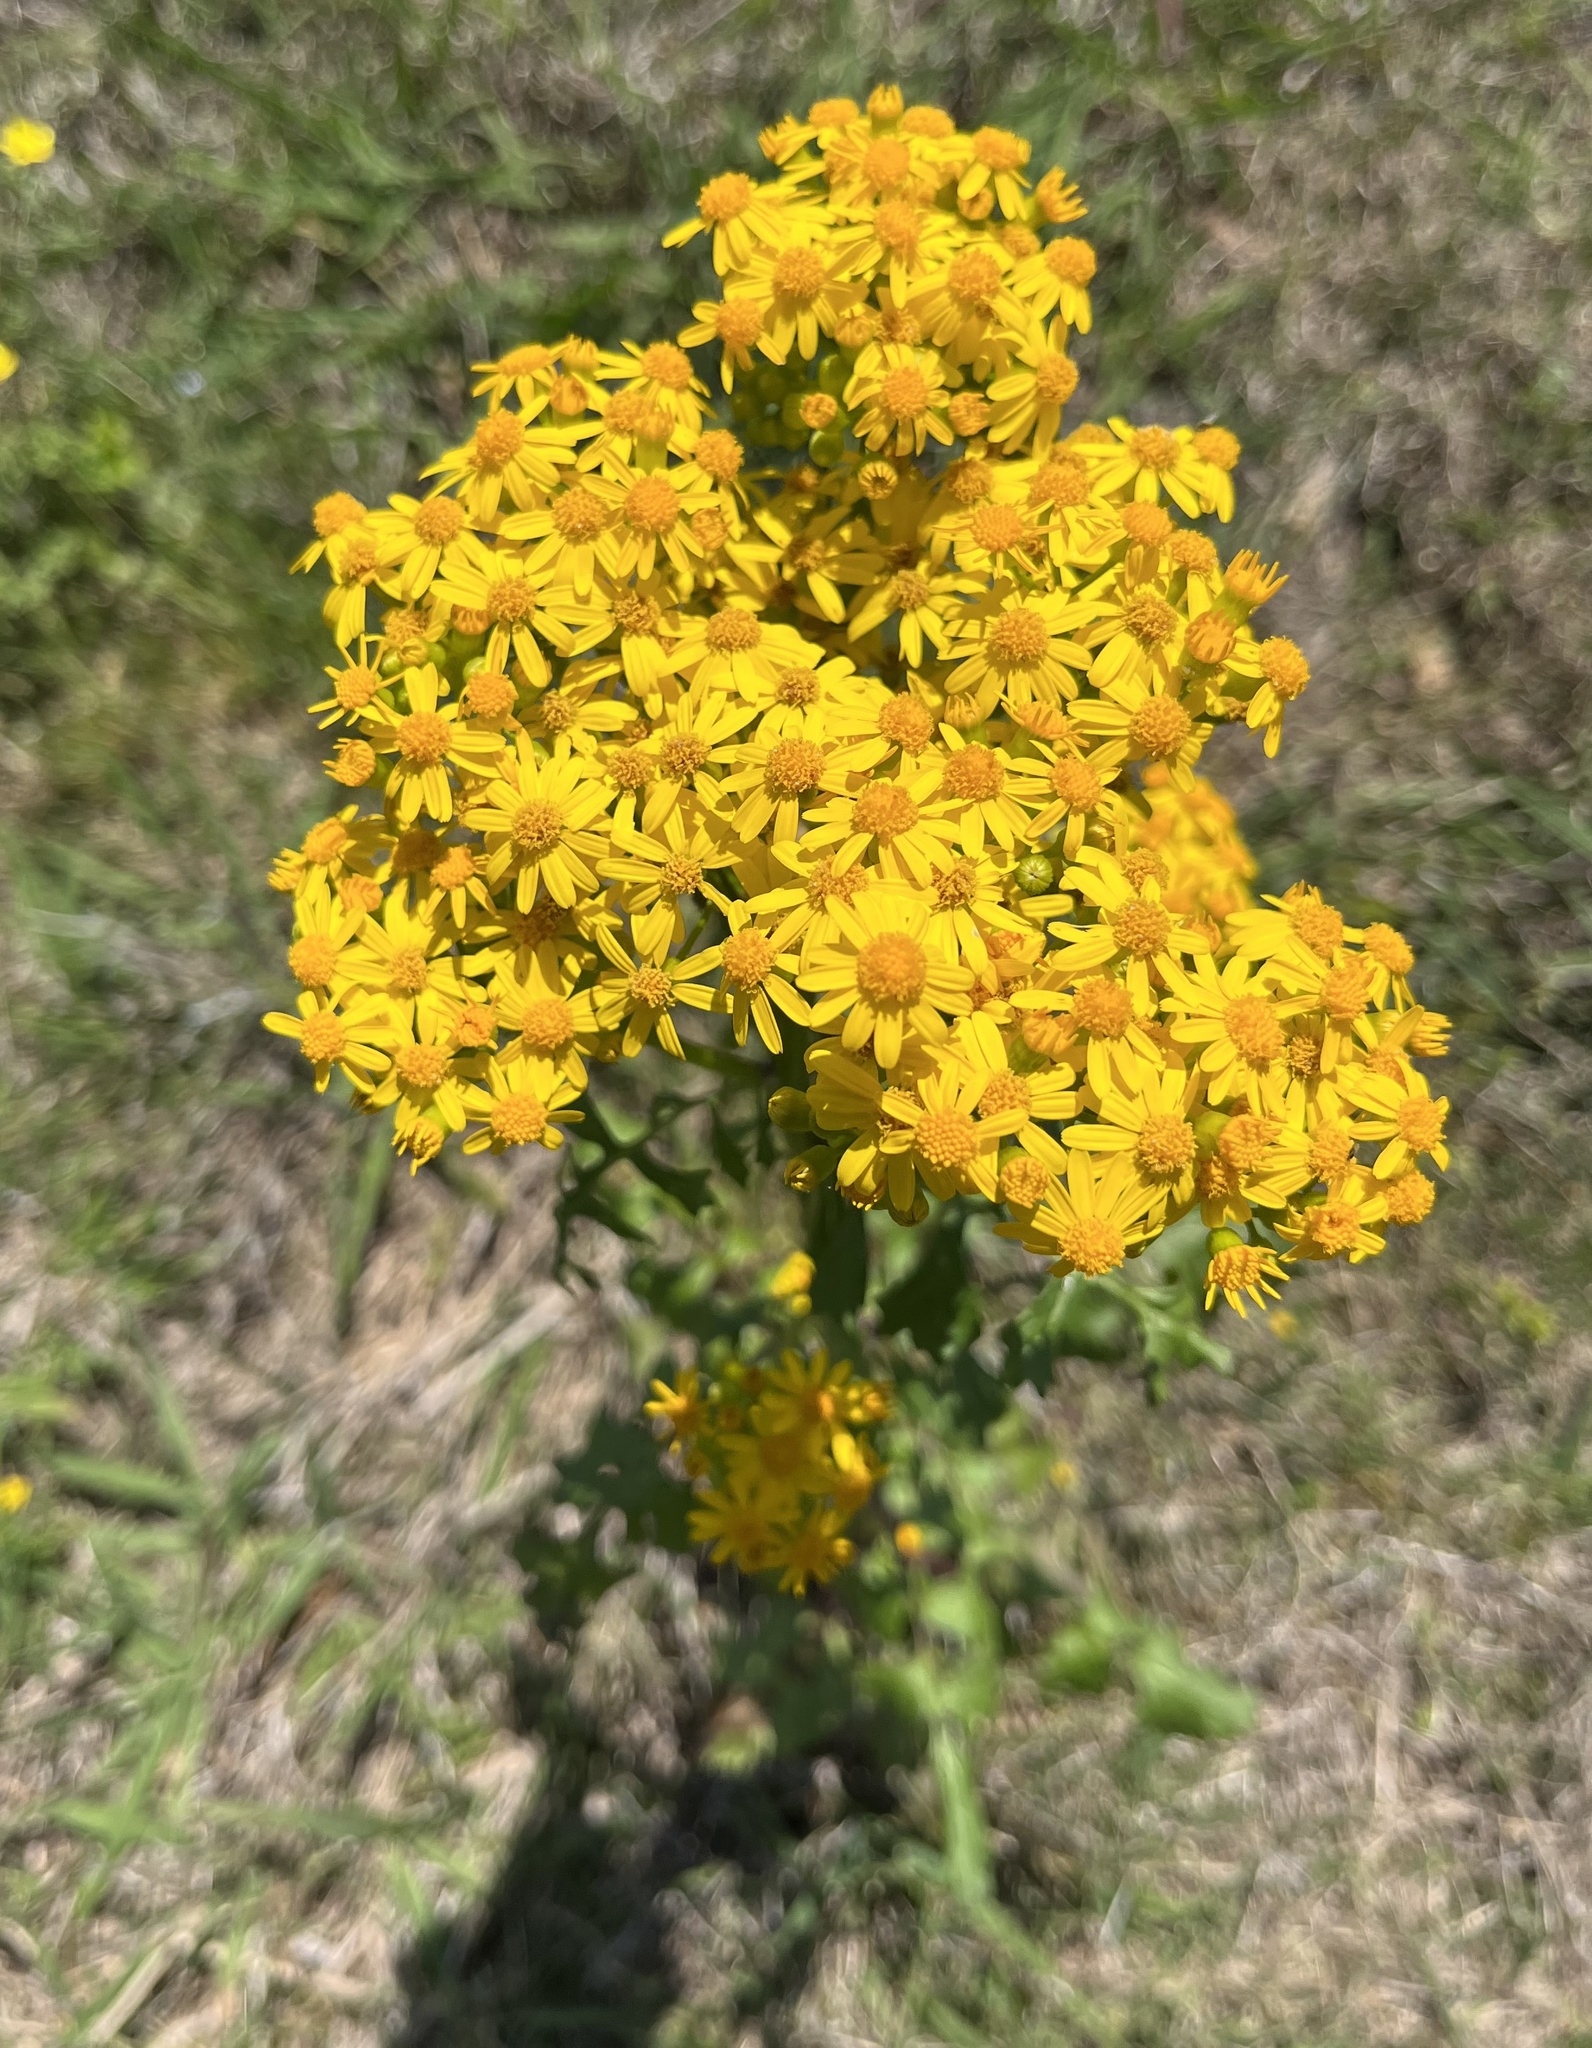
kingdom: Plantae
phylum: Tracheophyta
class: Magnoliopsida
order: Asterales
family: Asteraceae
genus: Packera
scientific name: Packera glabella
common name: Butterweed
